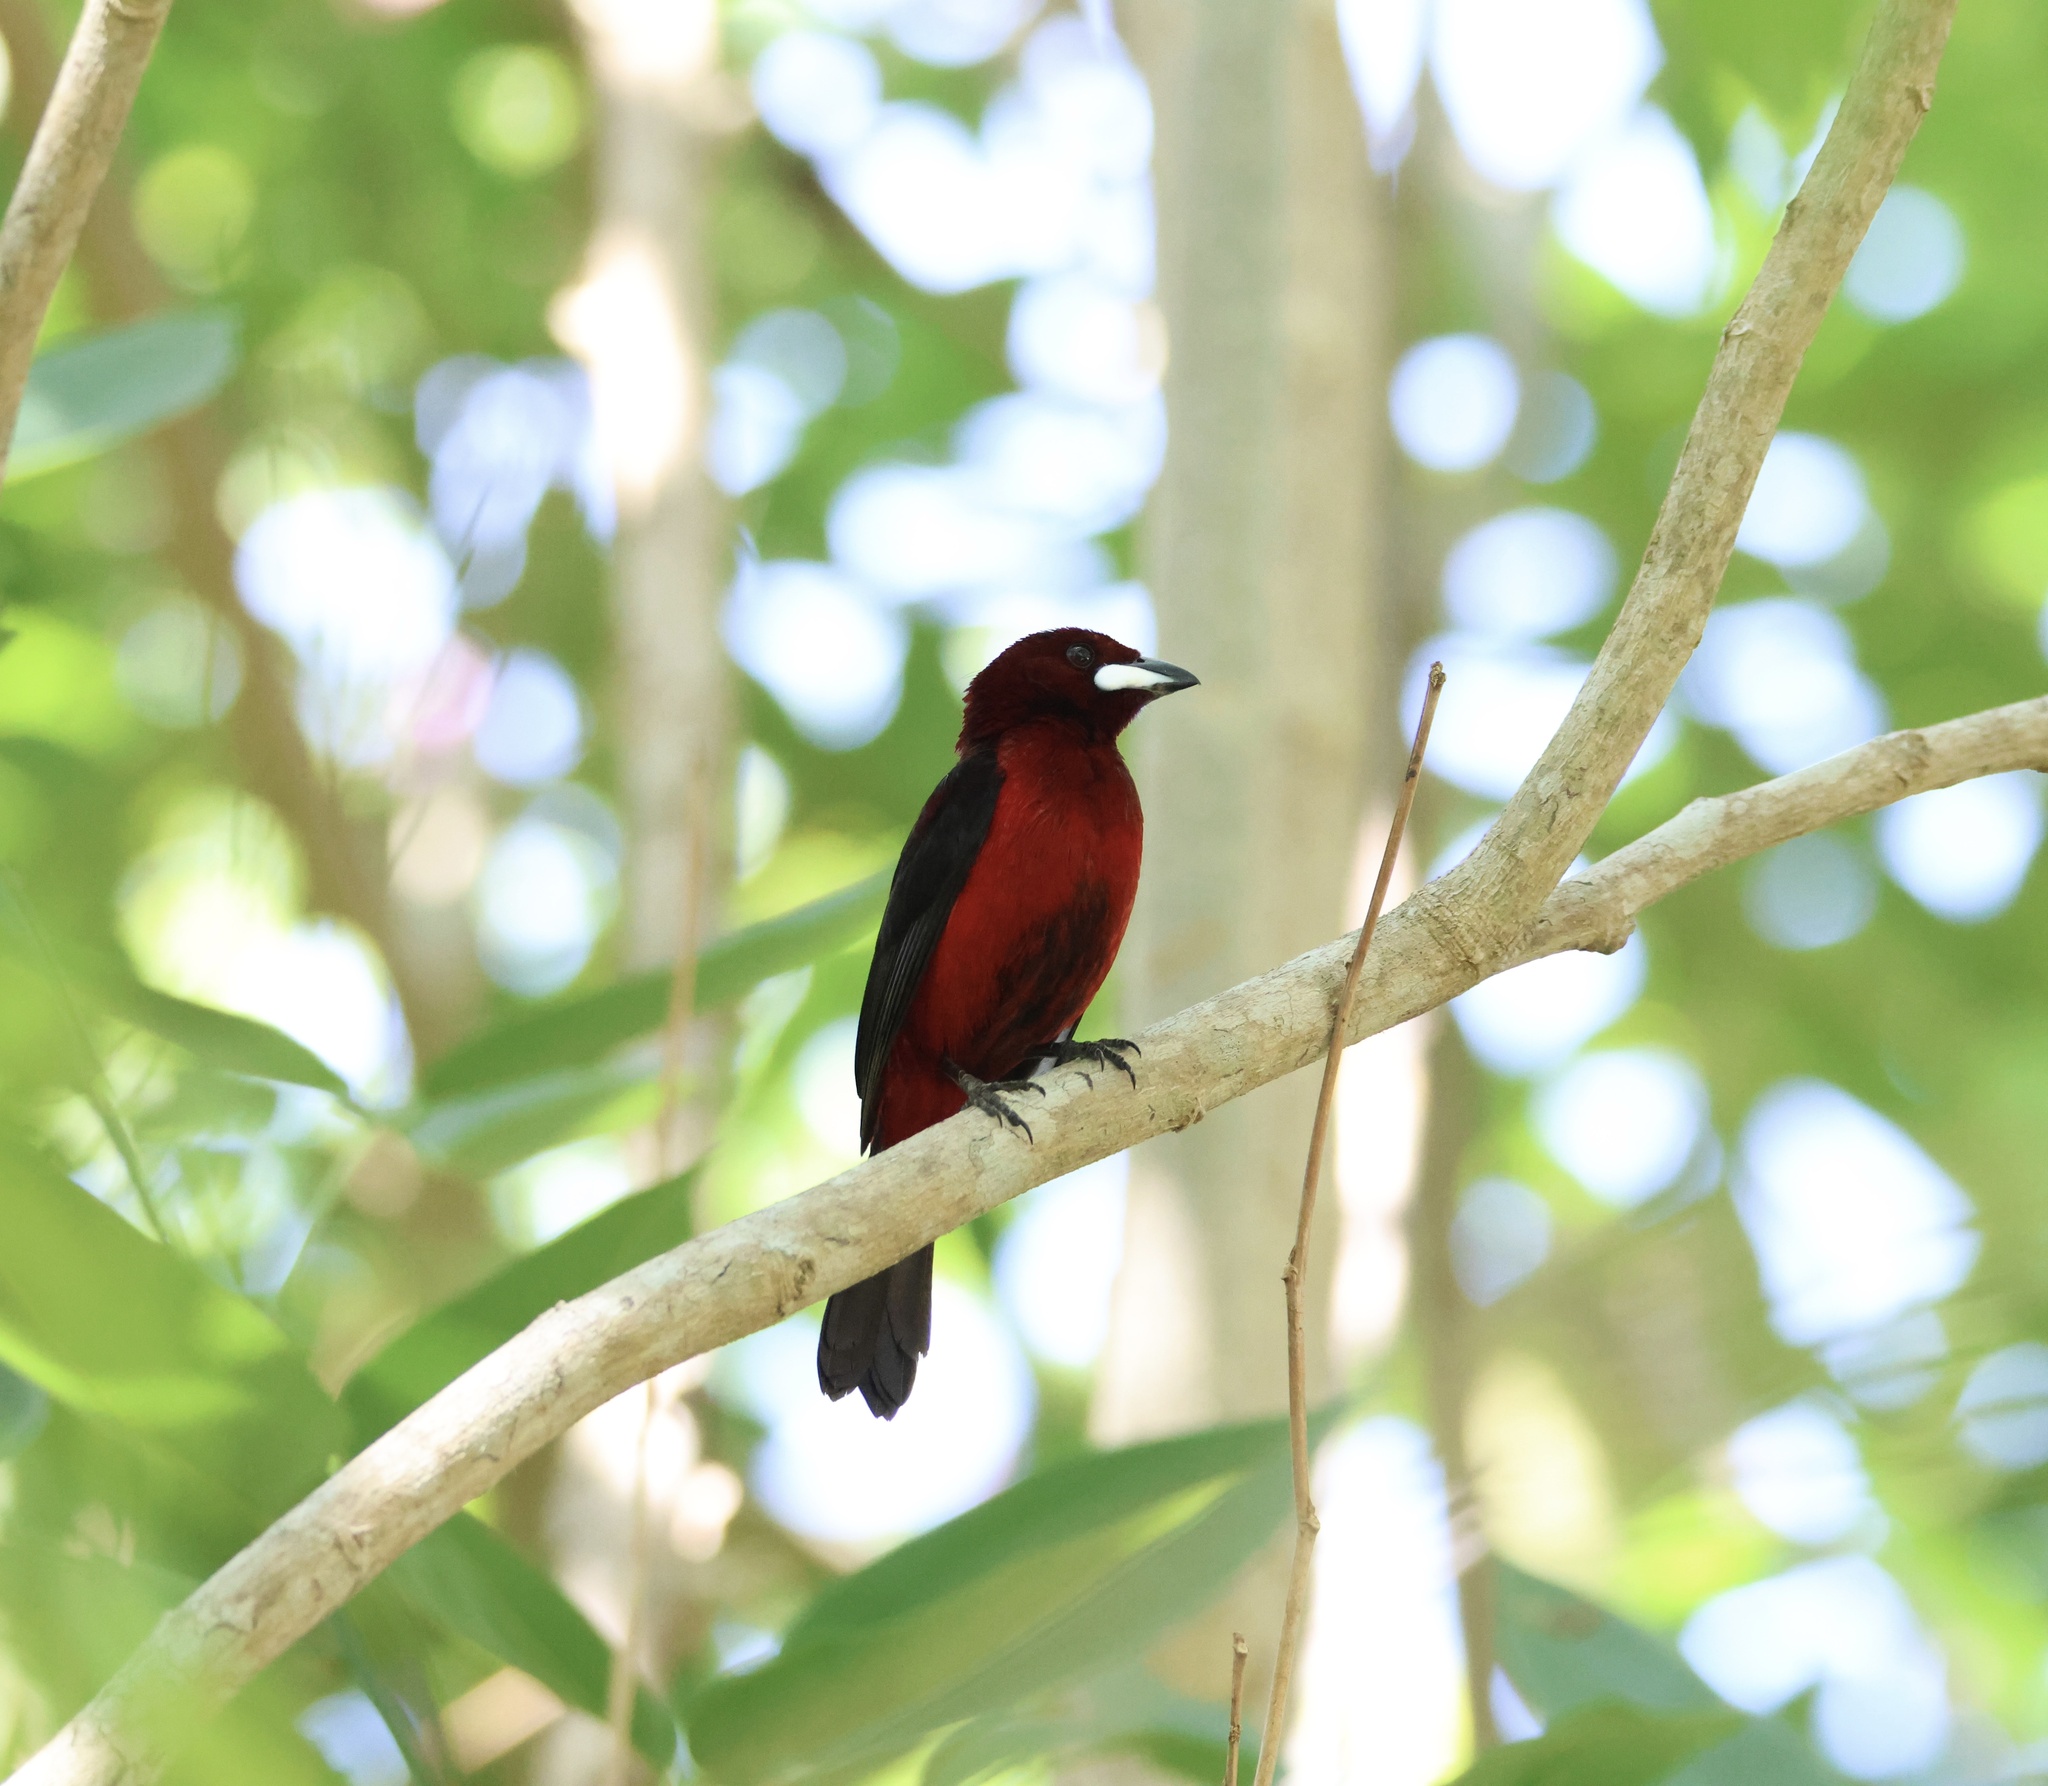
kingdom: Animalia
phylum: Chordata
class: Aves
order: Passeriformes
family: Thraupidae
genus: Ramphocelus
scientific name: Ramphocelus dimidiatus
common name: Crimson-backed tanager
